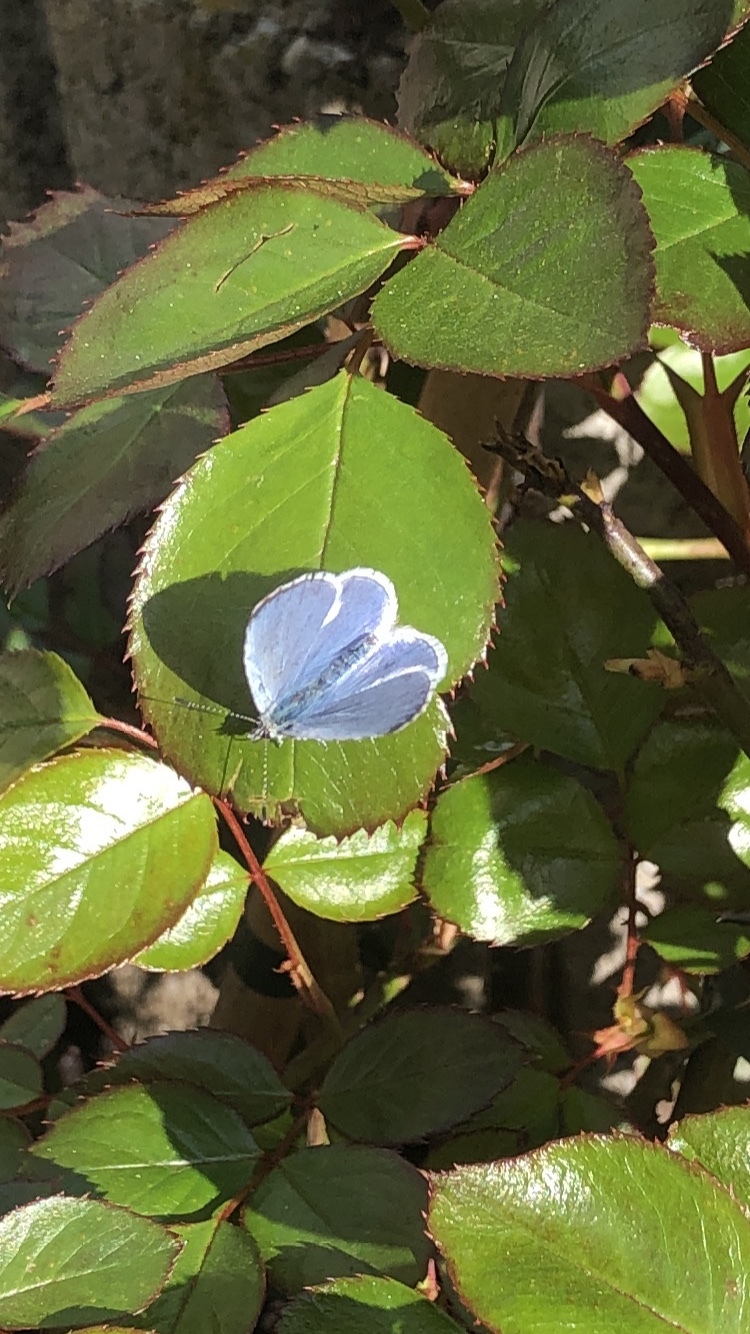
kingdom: Animalia
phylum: Arthropoda
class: Insecta
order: Lepidoptera
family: Lycaenidae
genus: Celastrina
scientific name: Celastrina argiolus
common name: Holly blue
